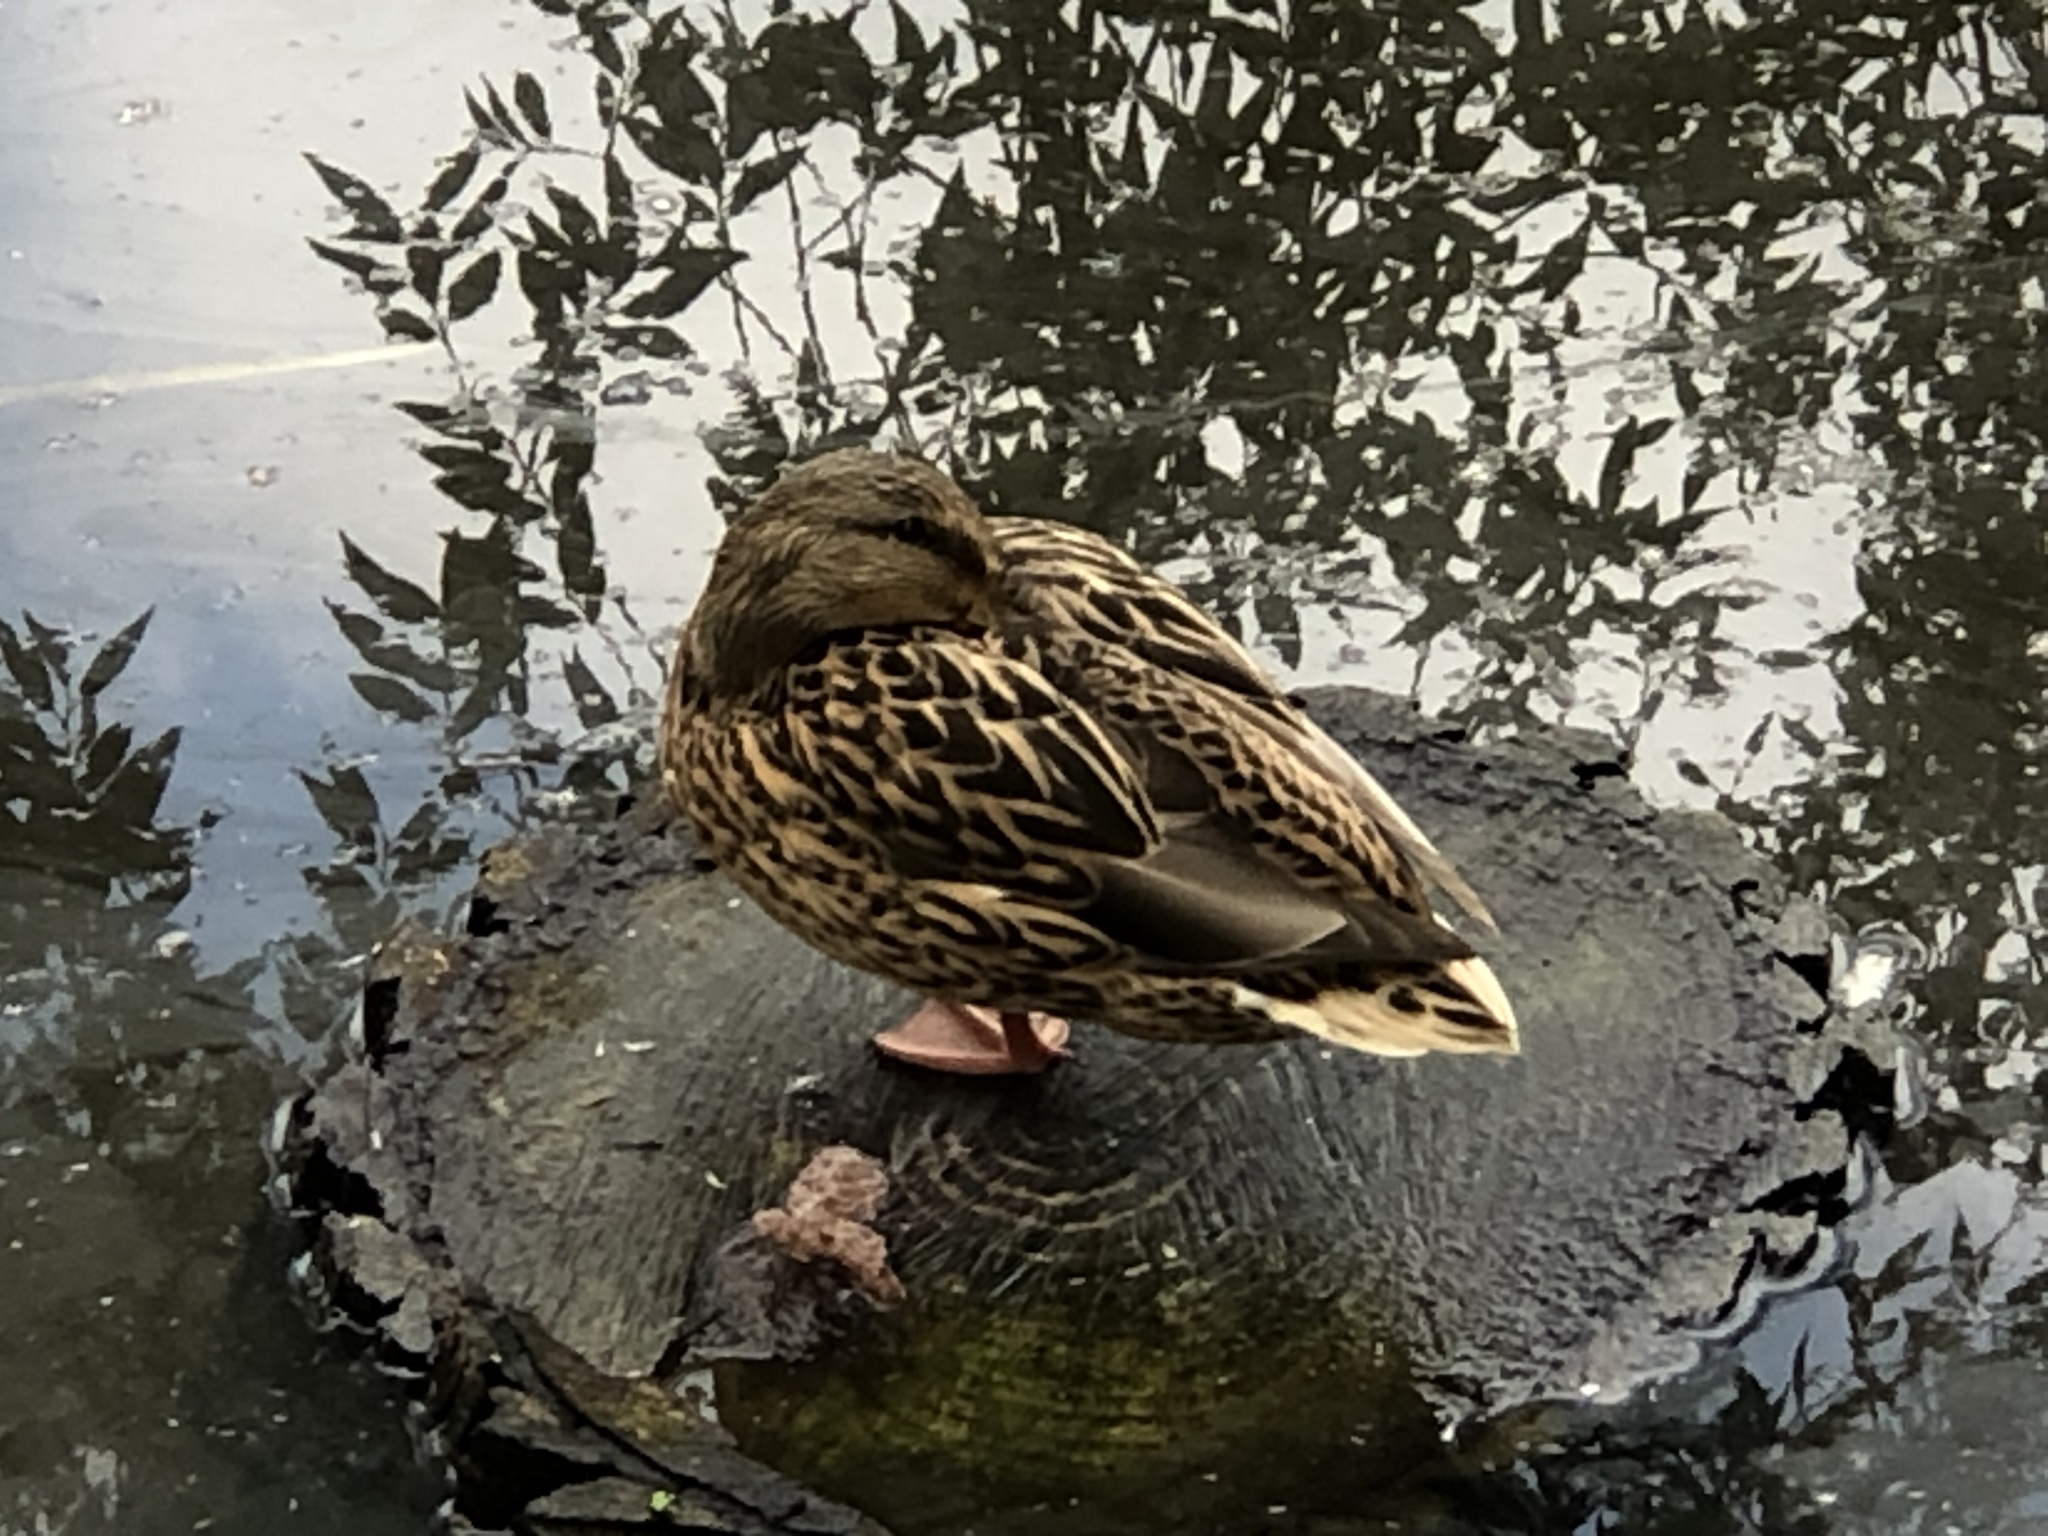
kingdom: Animalia
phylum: Chordata
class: Aves
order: Anseriformes
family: Anatidae
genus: Anas
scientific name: Anas platyrhynchos
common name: Mallard
